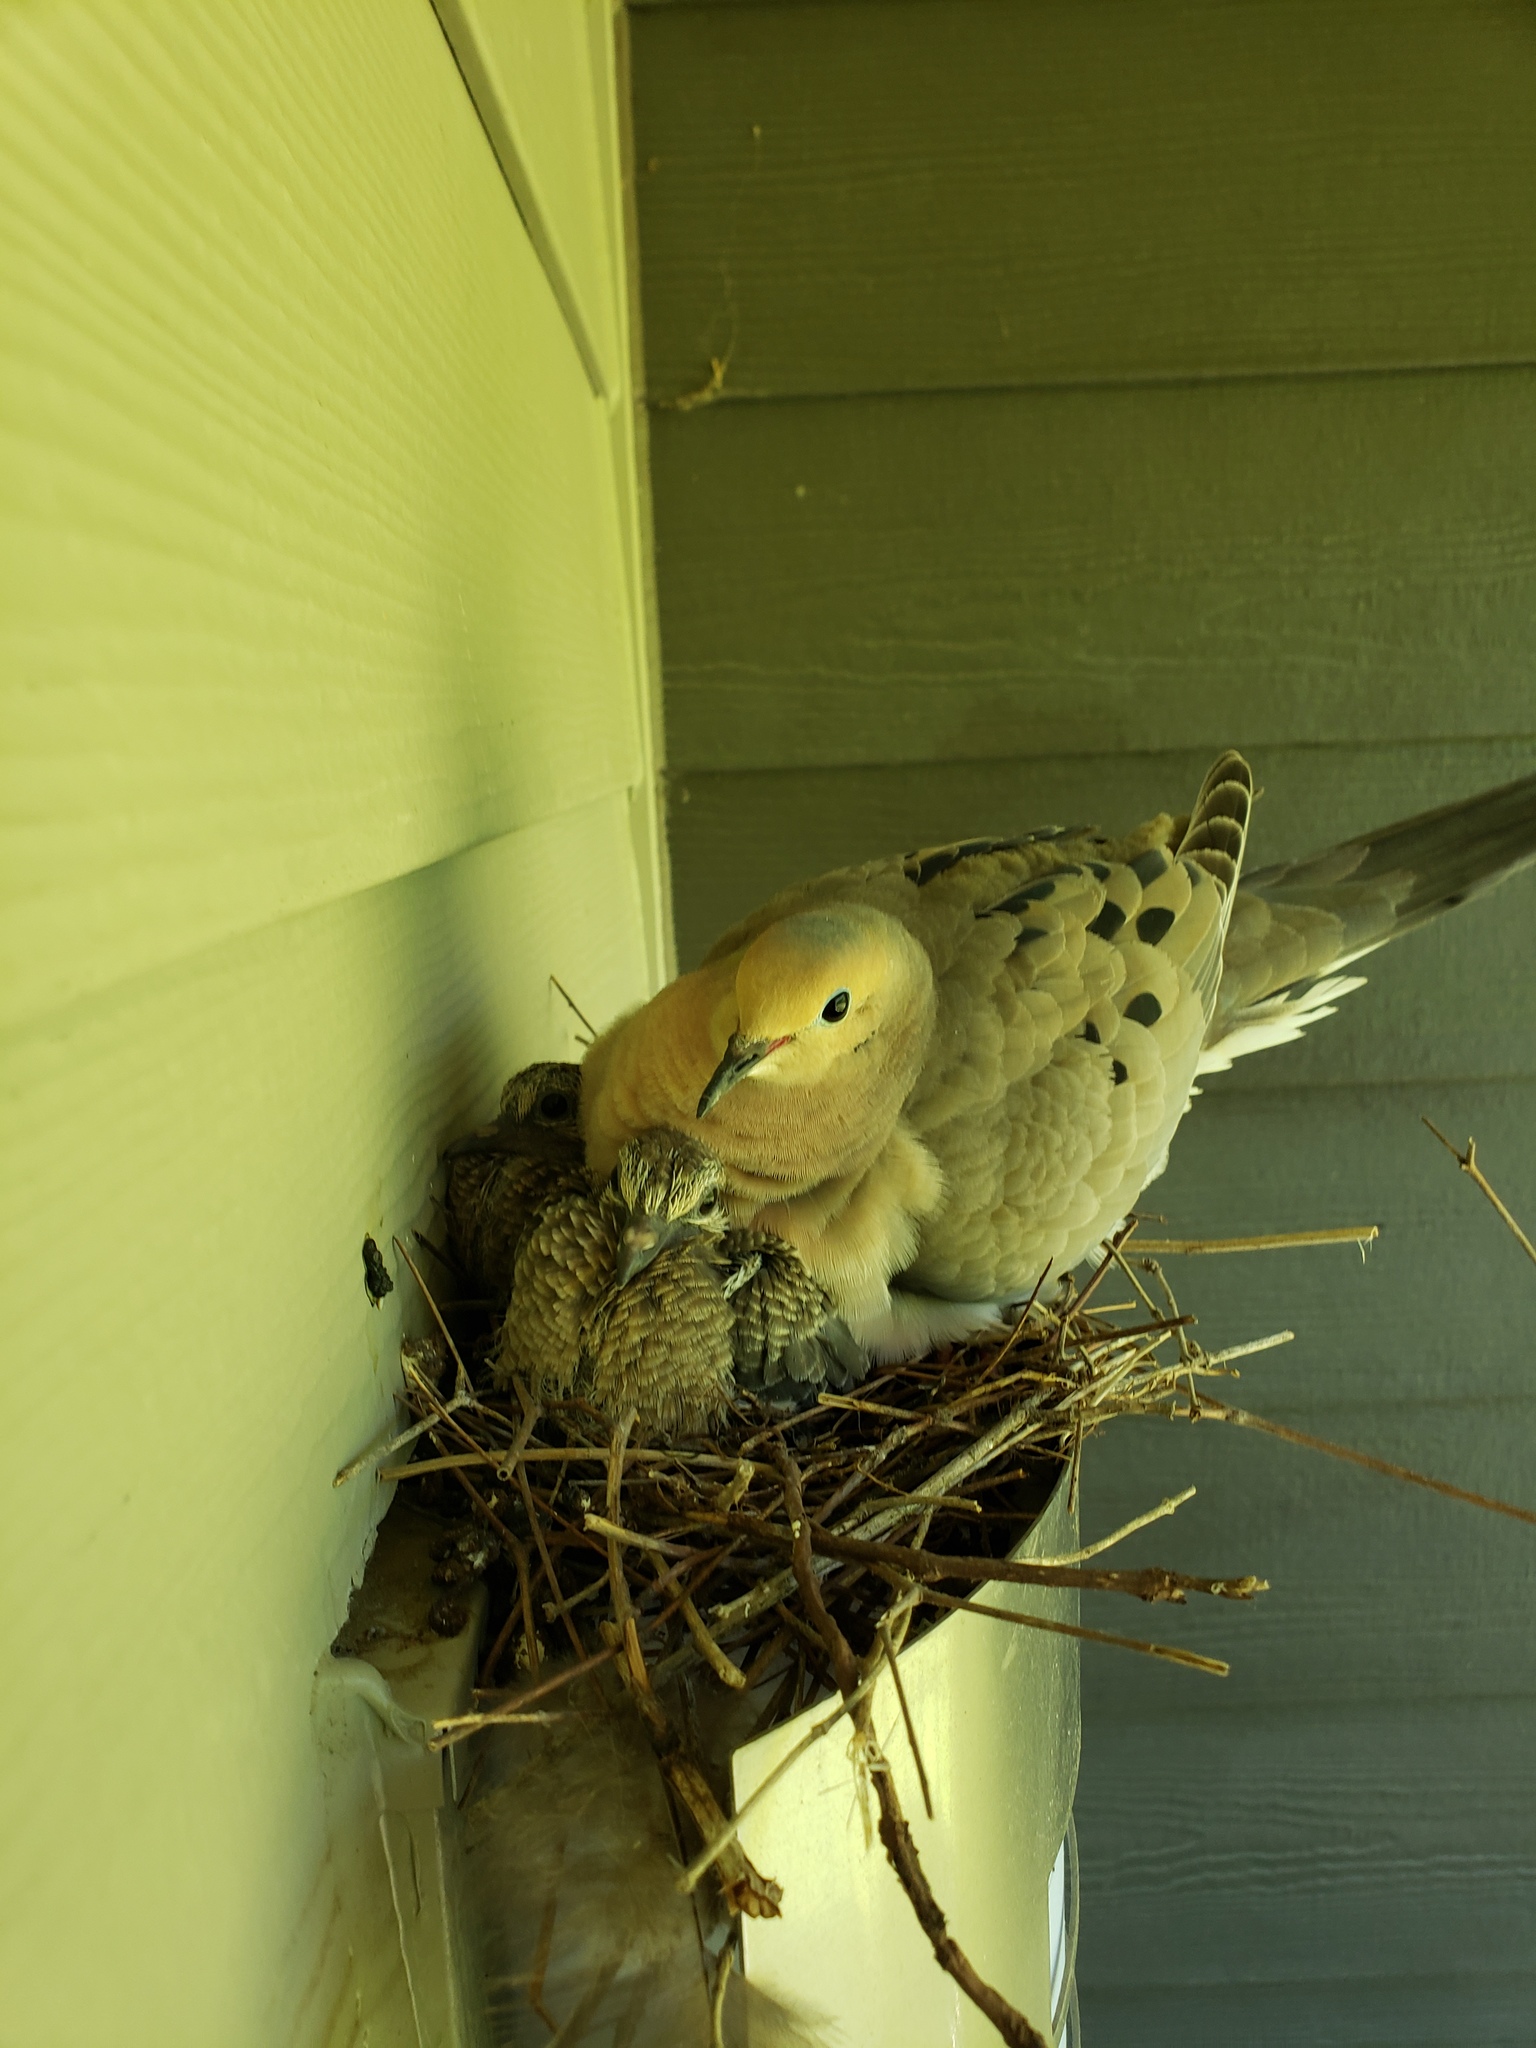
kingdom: Animalia
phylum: Chordata
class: Aves
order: Columbiformes
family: Columbidae
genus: Zenaida
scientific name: Zenaida macroura
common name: Mourning dove
